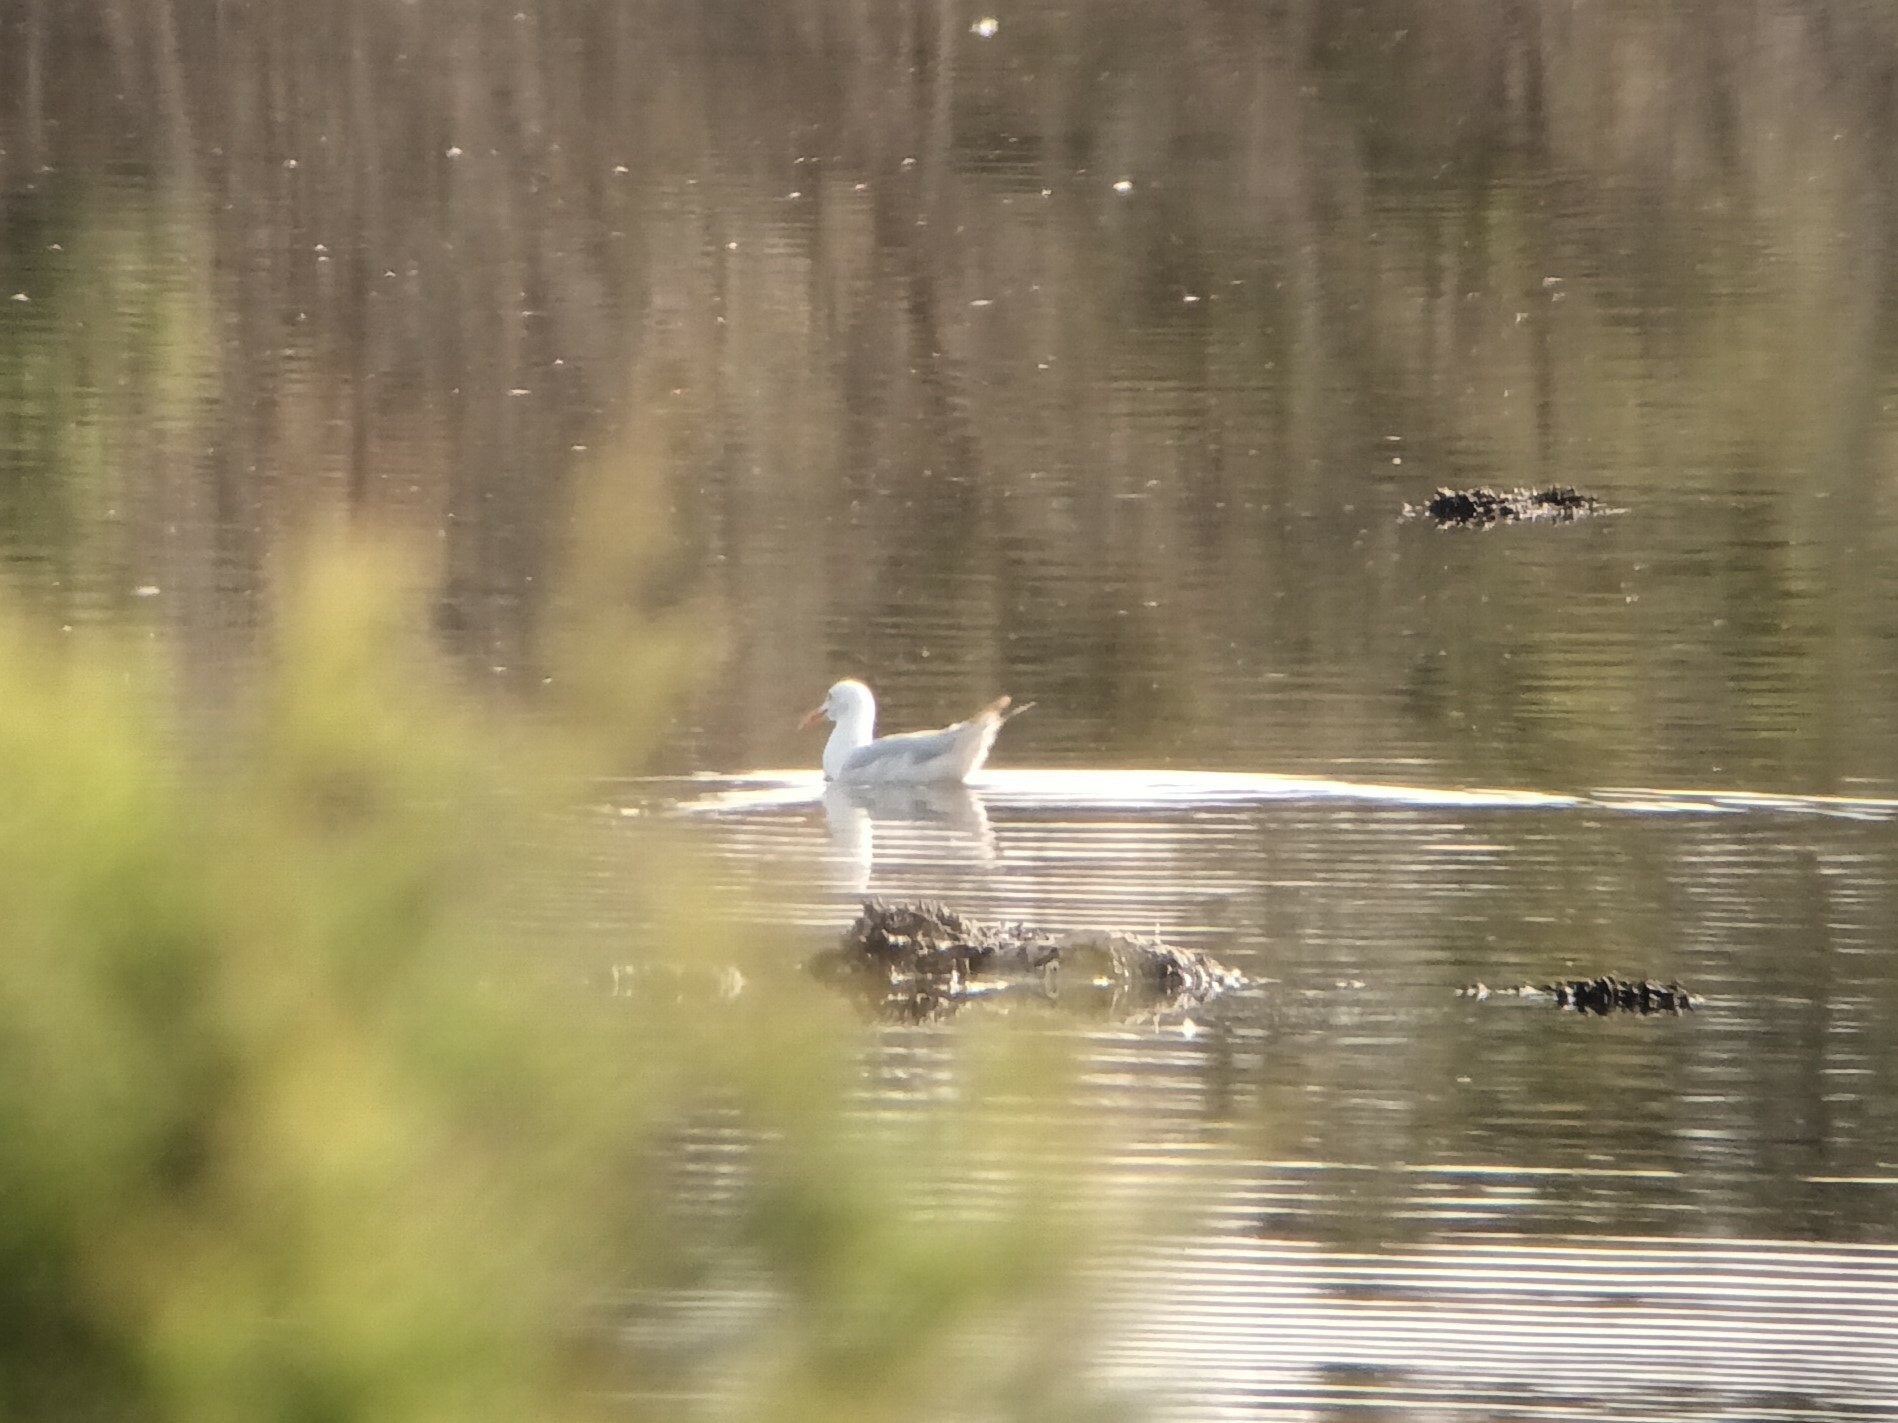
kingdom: Animalia
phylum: Chordata
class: Aves
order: Charadriiformes
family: Laridae
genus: Chroicocephalus
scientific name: Chroicocephalus genei
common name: Slender-billed gull
